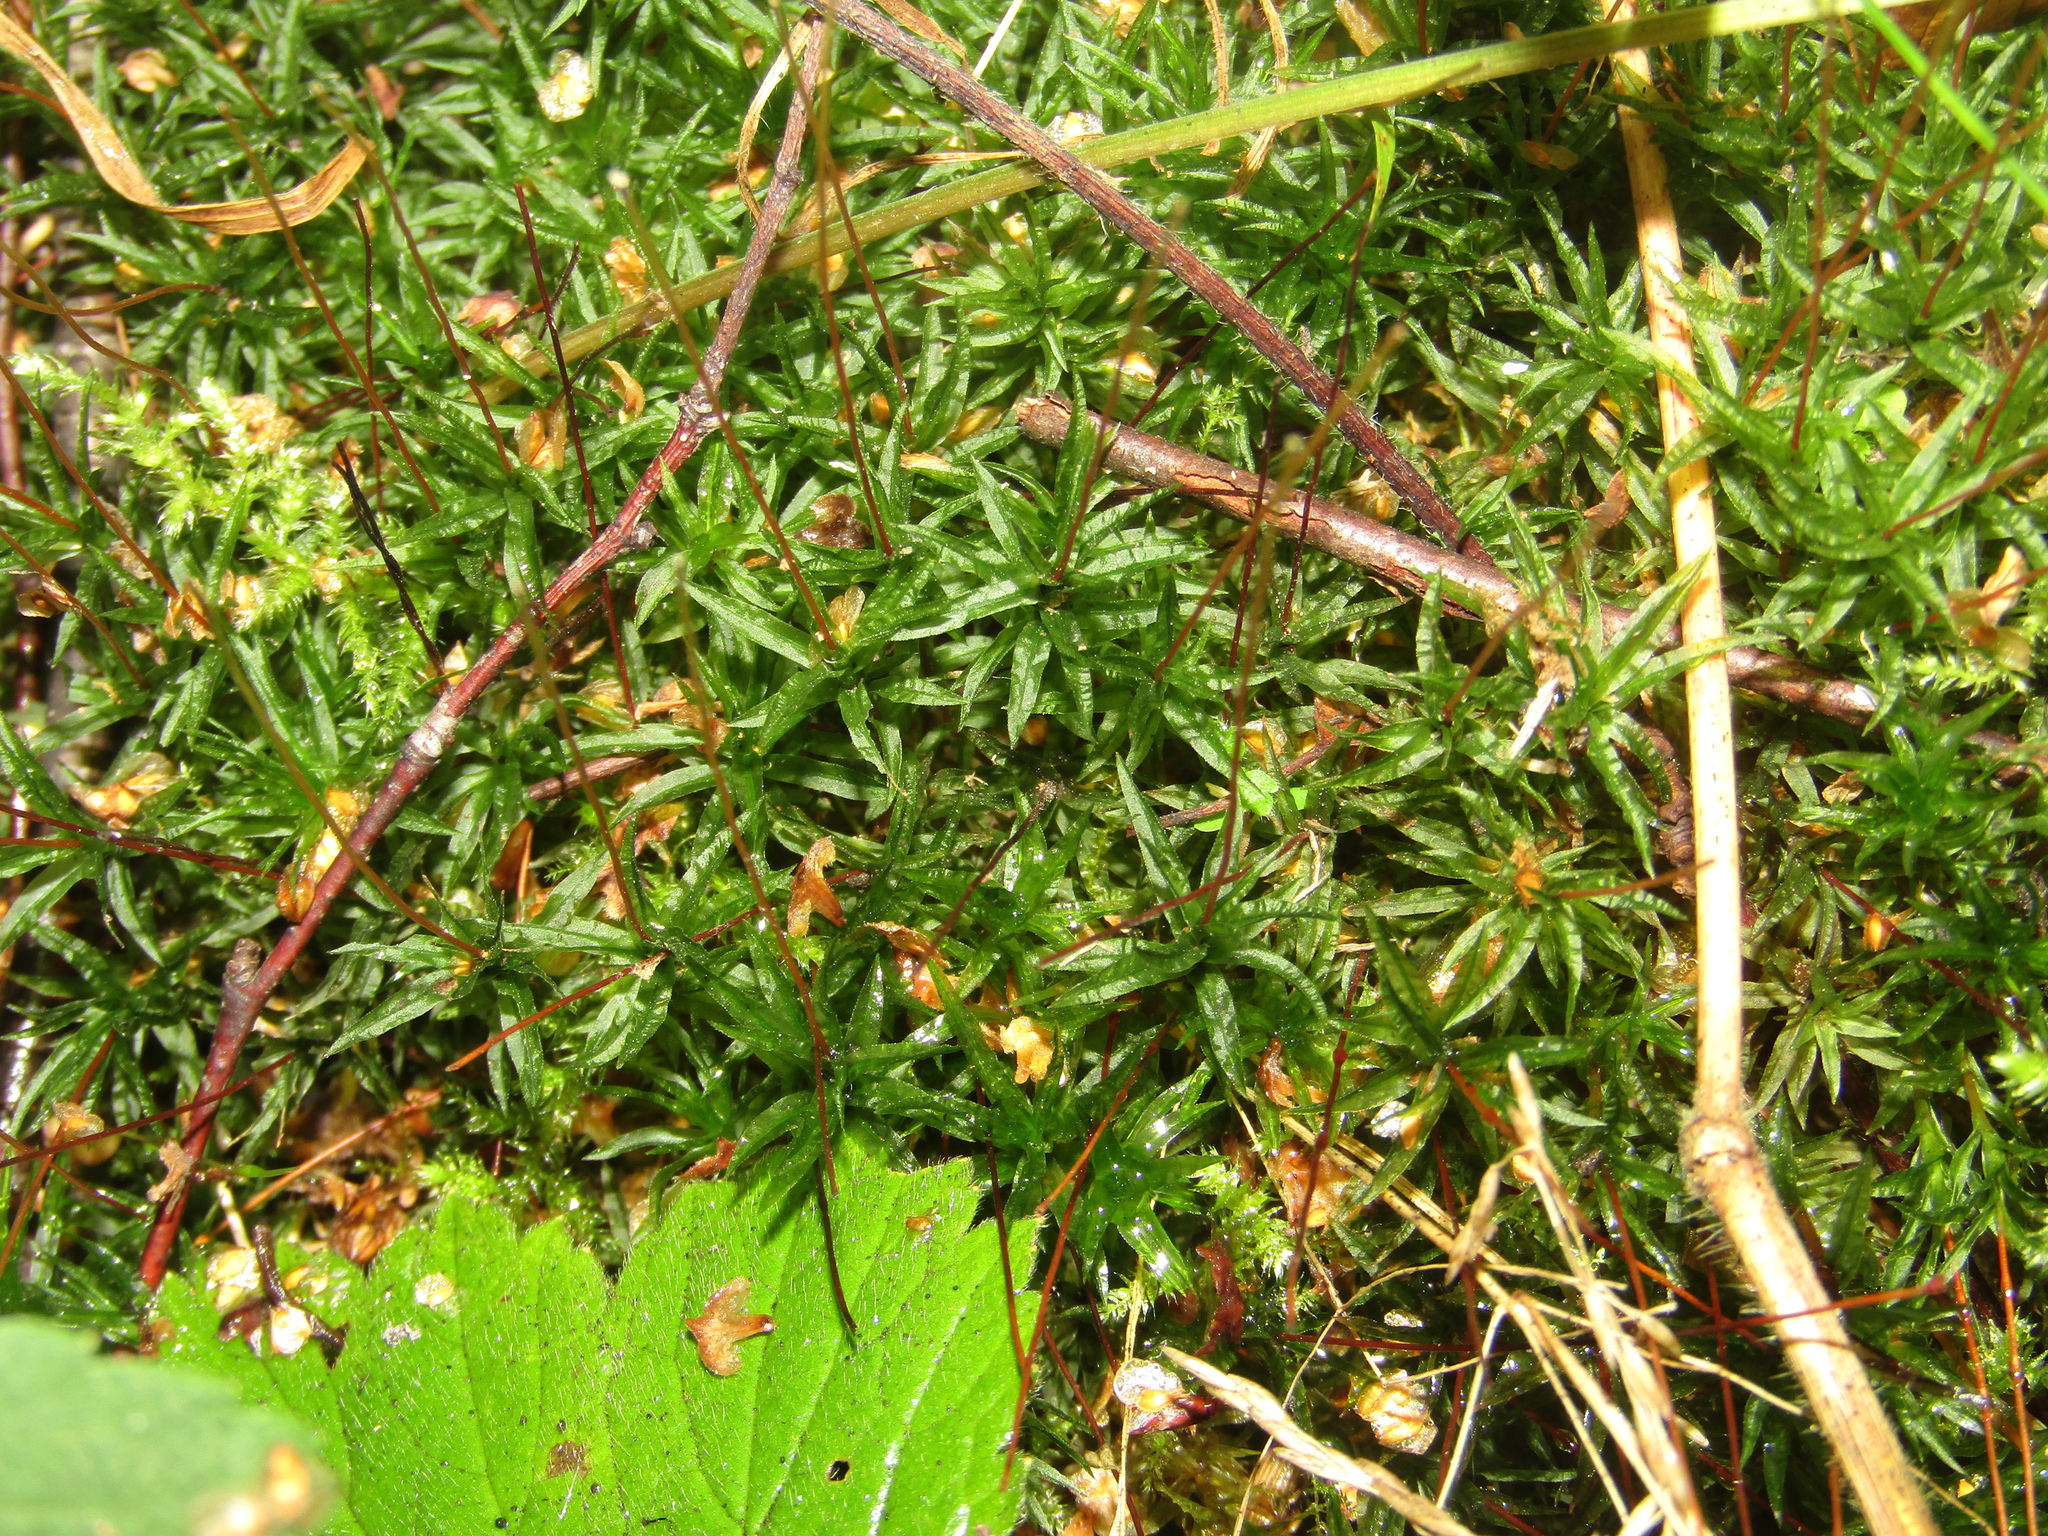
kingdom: Plantae
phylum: Bryophyta
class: Polytrichopsida
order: Polytrichales
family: Polytrichaceae
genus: Atrichum
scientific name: Atrichum undulatum
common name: Common smoothcap
